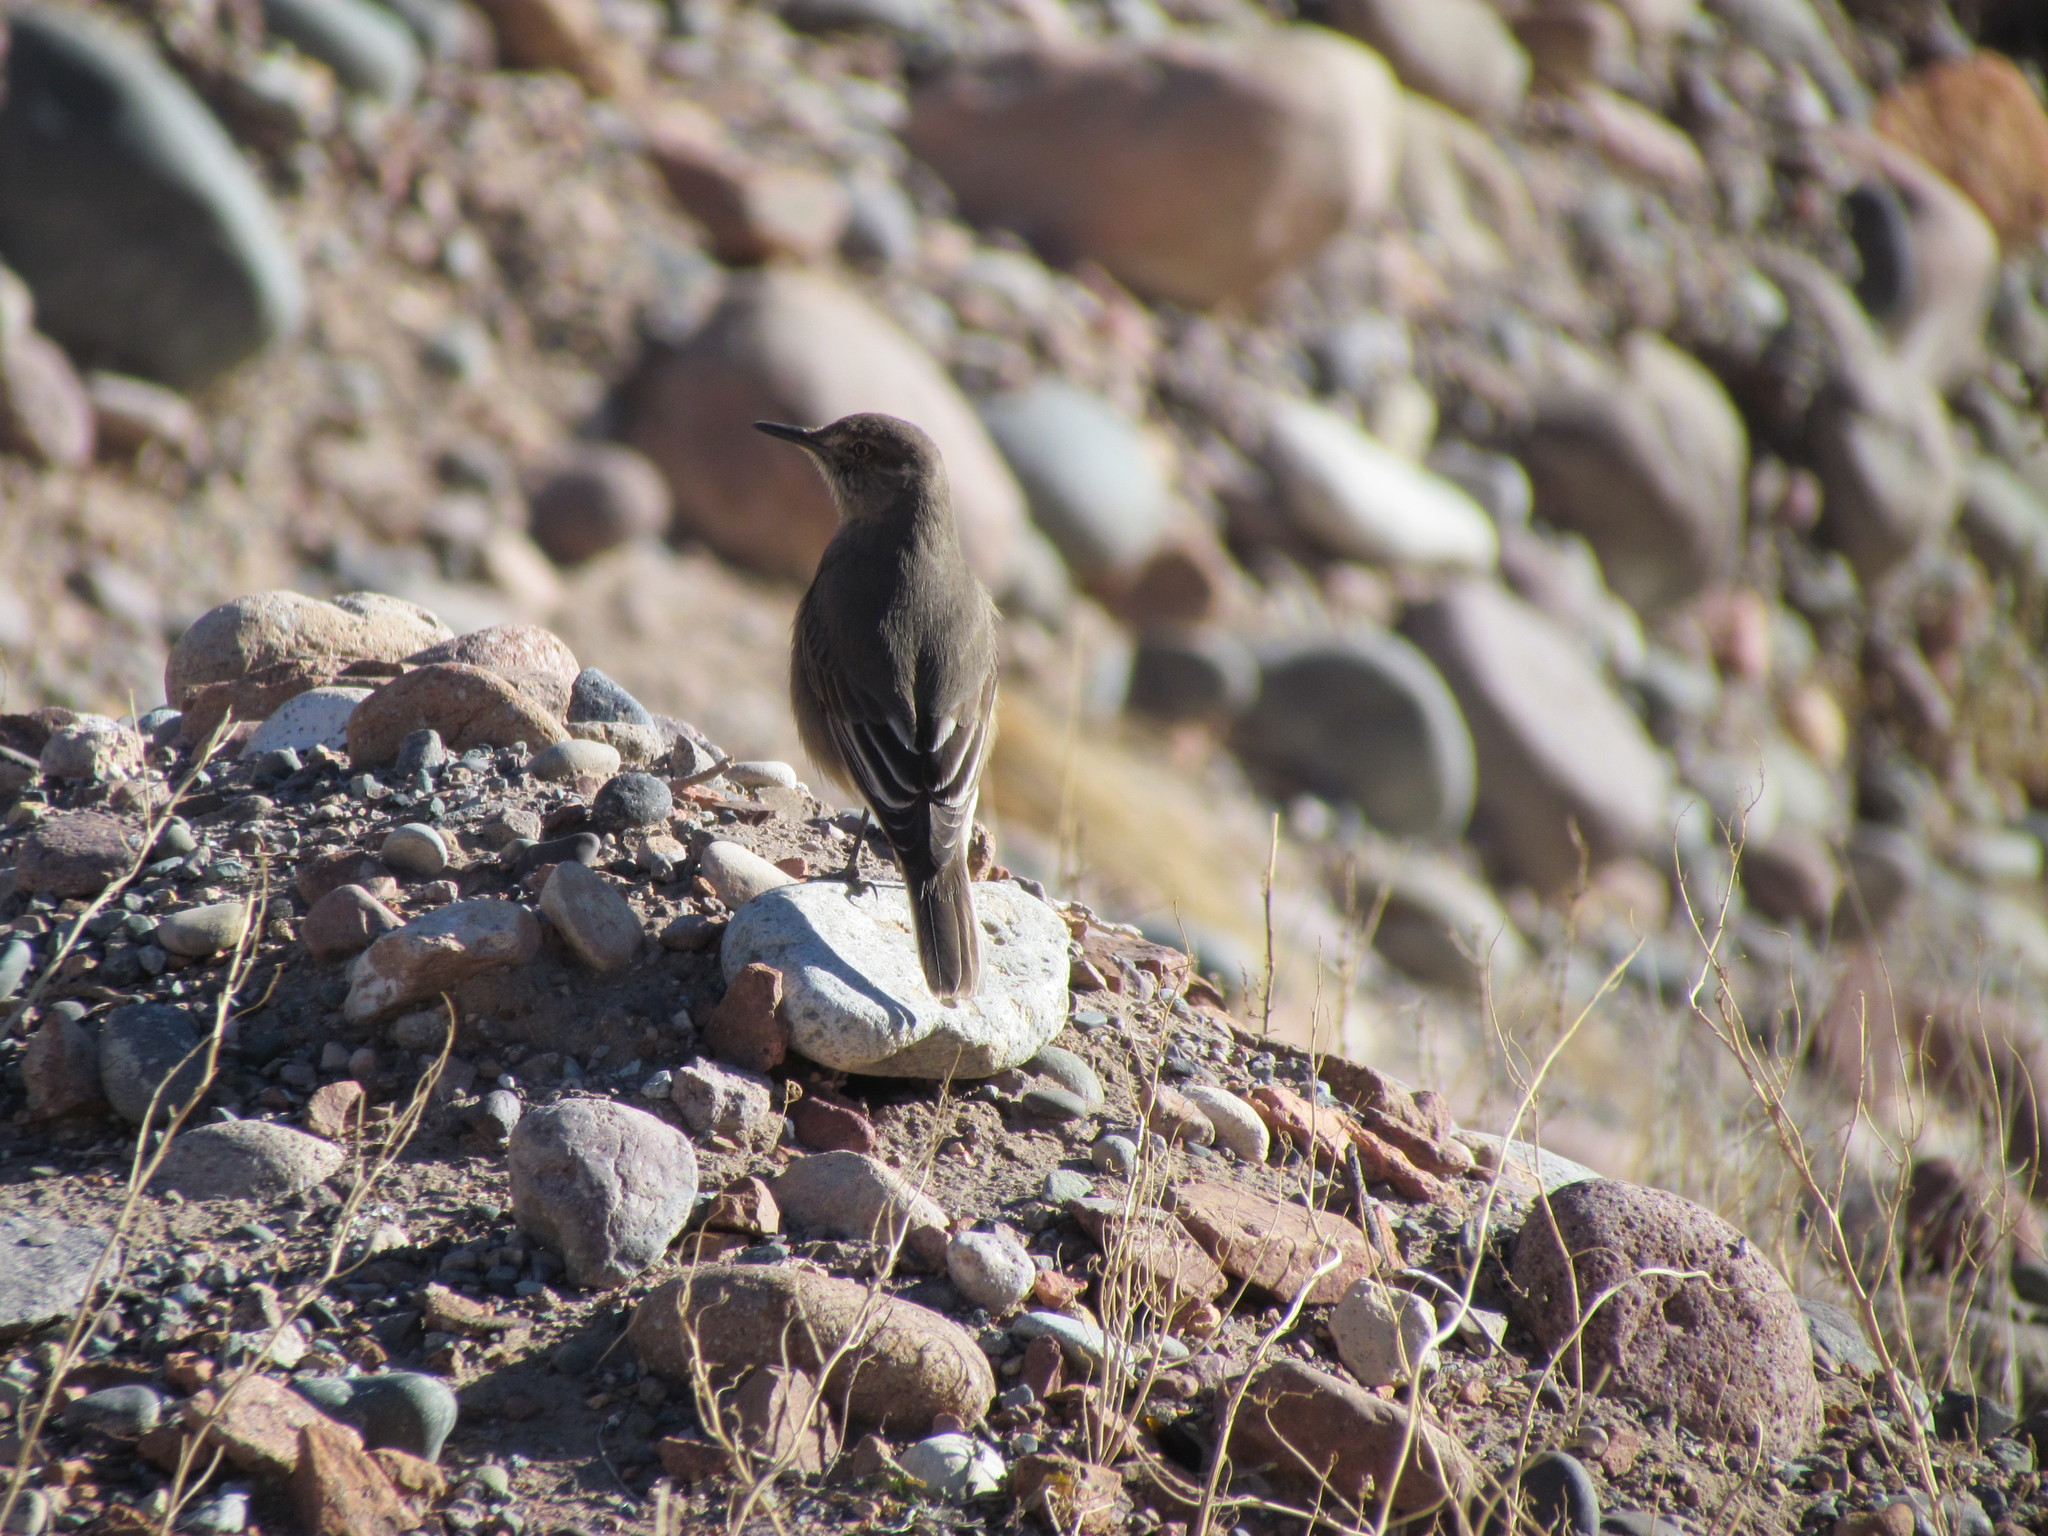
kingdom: Animalia
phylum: Chordata
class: Aves
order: Passeriformes
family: Tyrannidae
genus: Agriornis
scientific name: Agriornis montanus
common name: Black-billed shrike-tyrant
